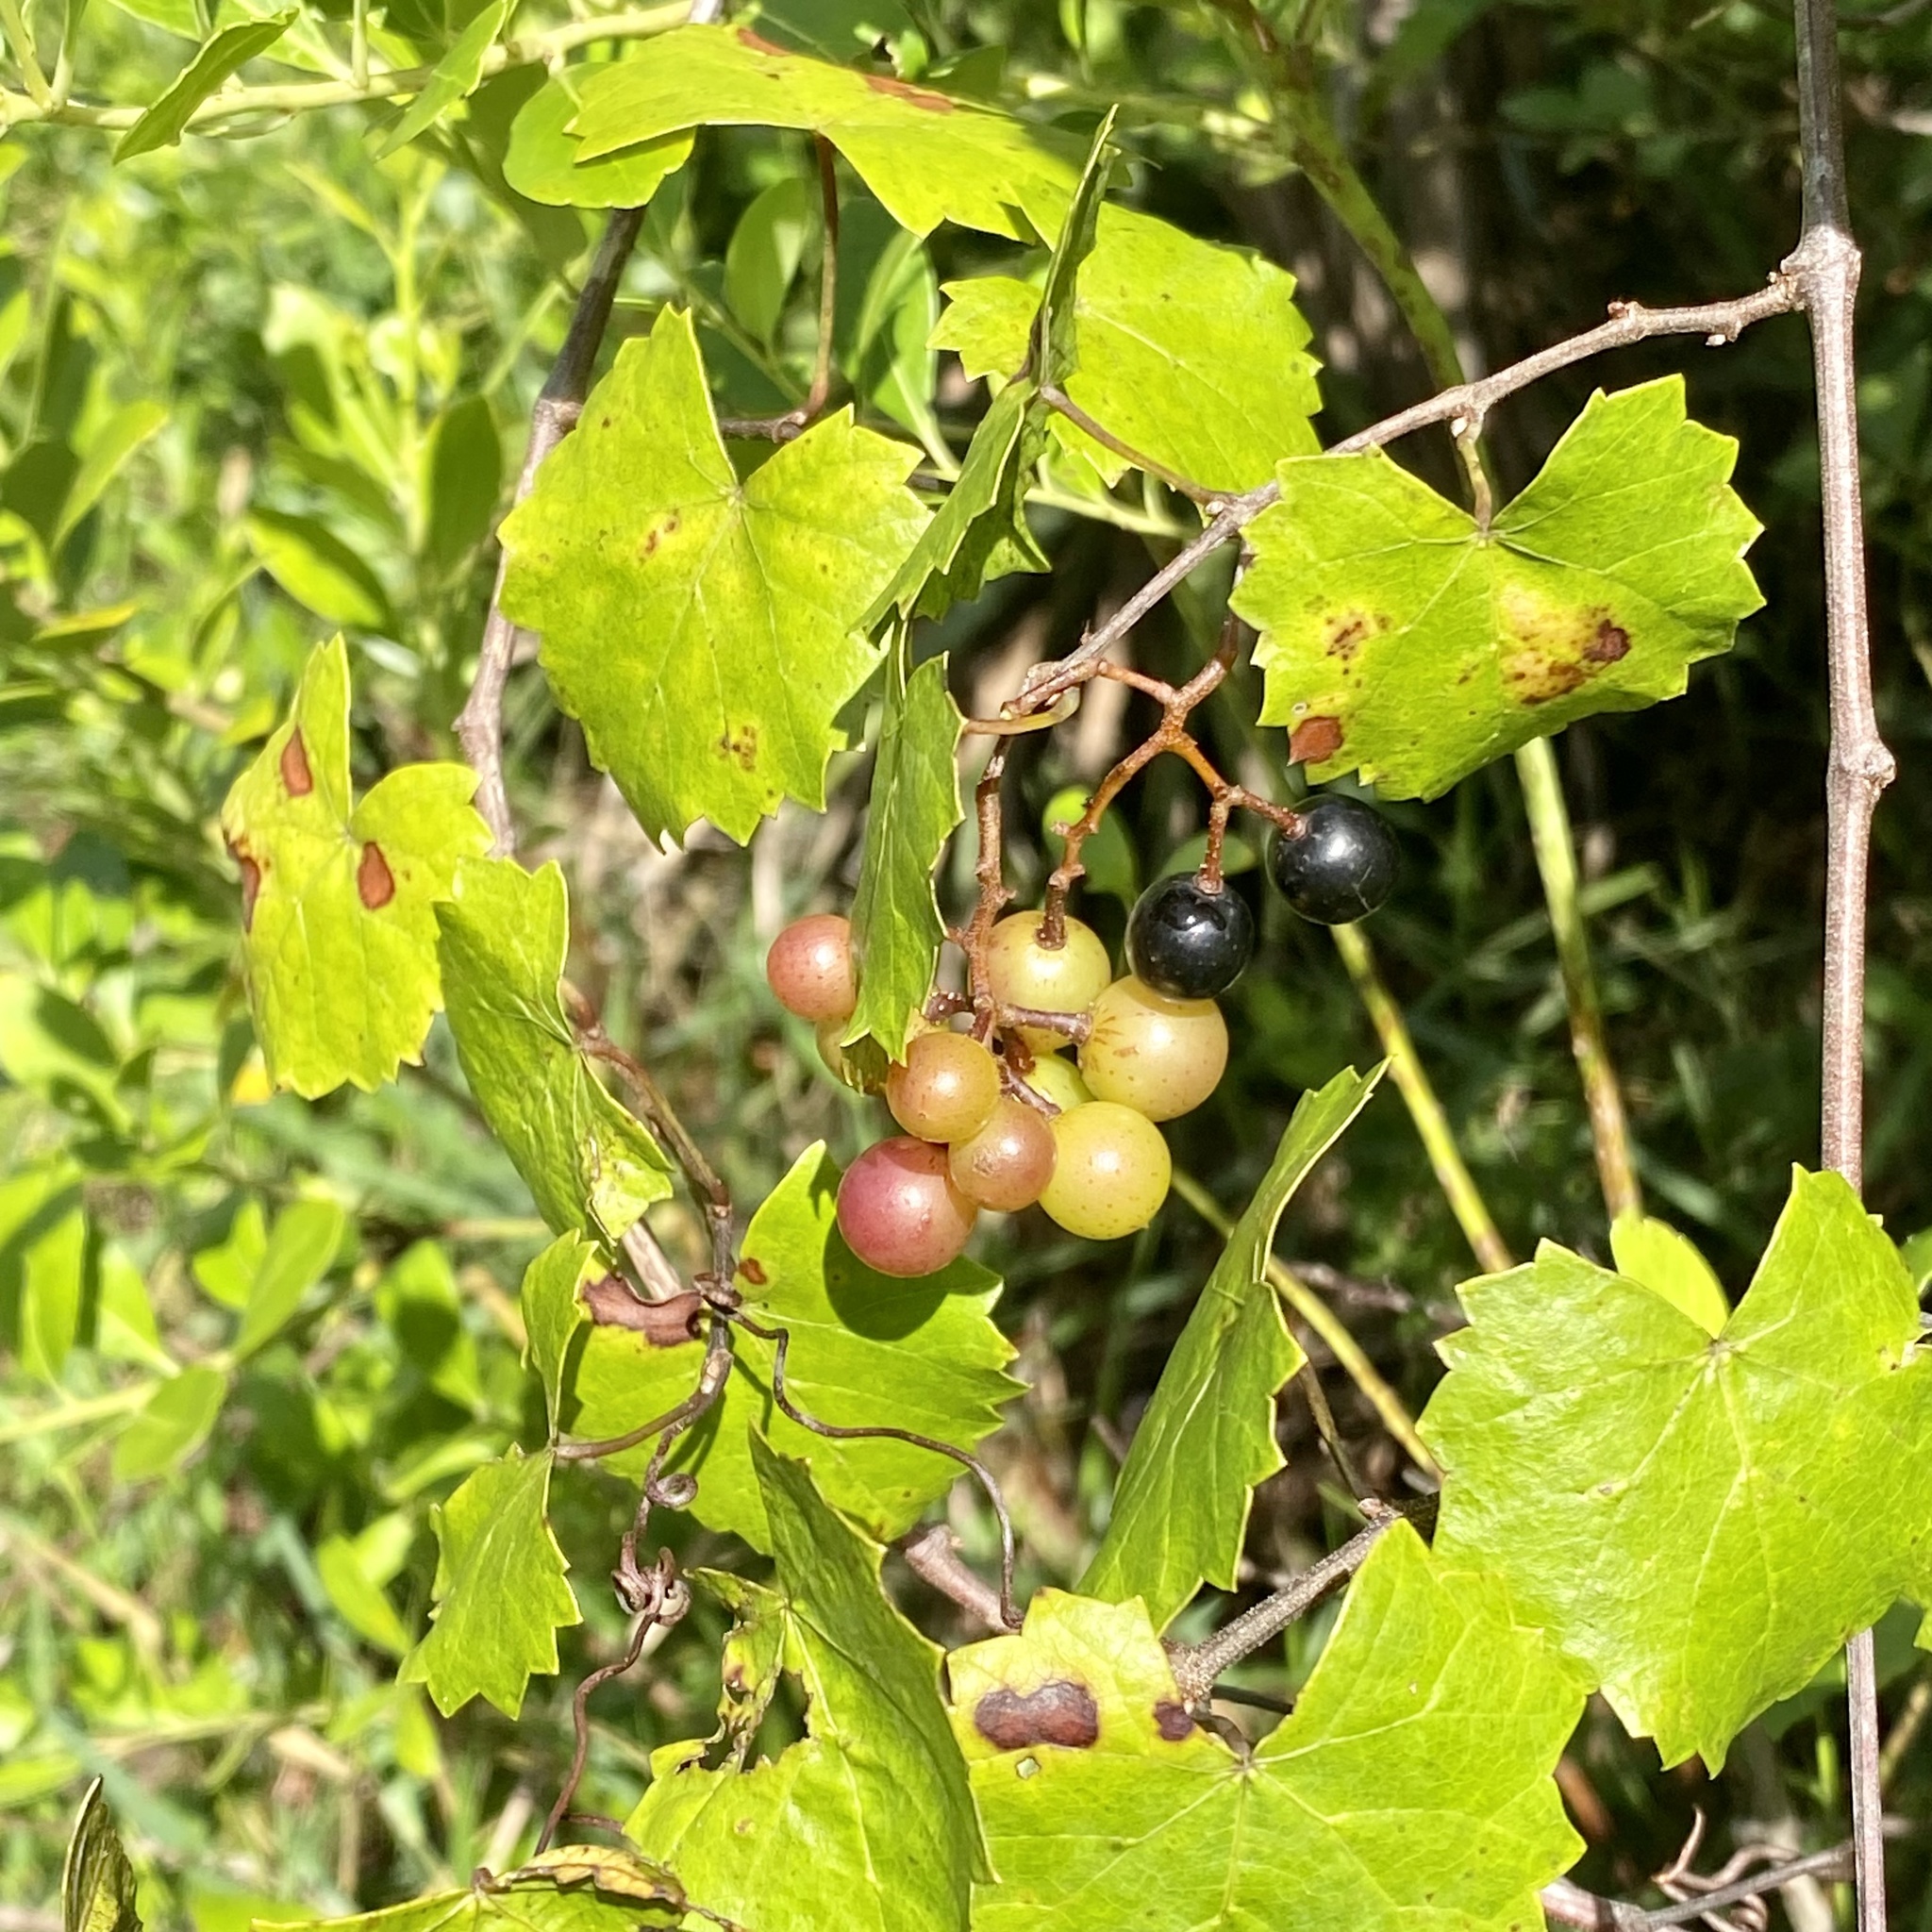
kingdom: Plantae
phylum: Tracheophyta
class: Magnoliopsida
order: Vitales
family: Vitaceae
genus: Vitis
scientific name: Vitis rotundifolia
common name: Muscadine grape
